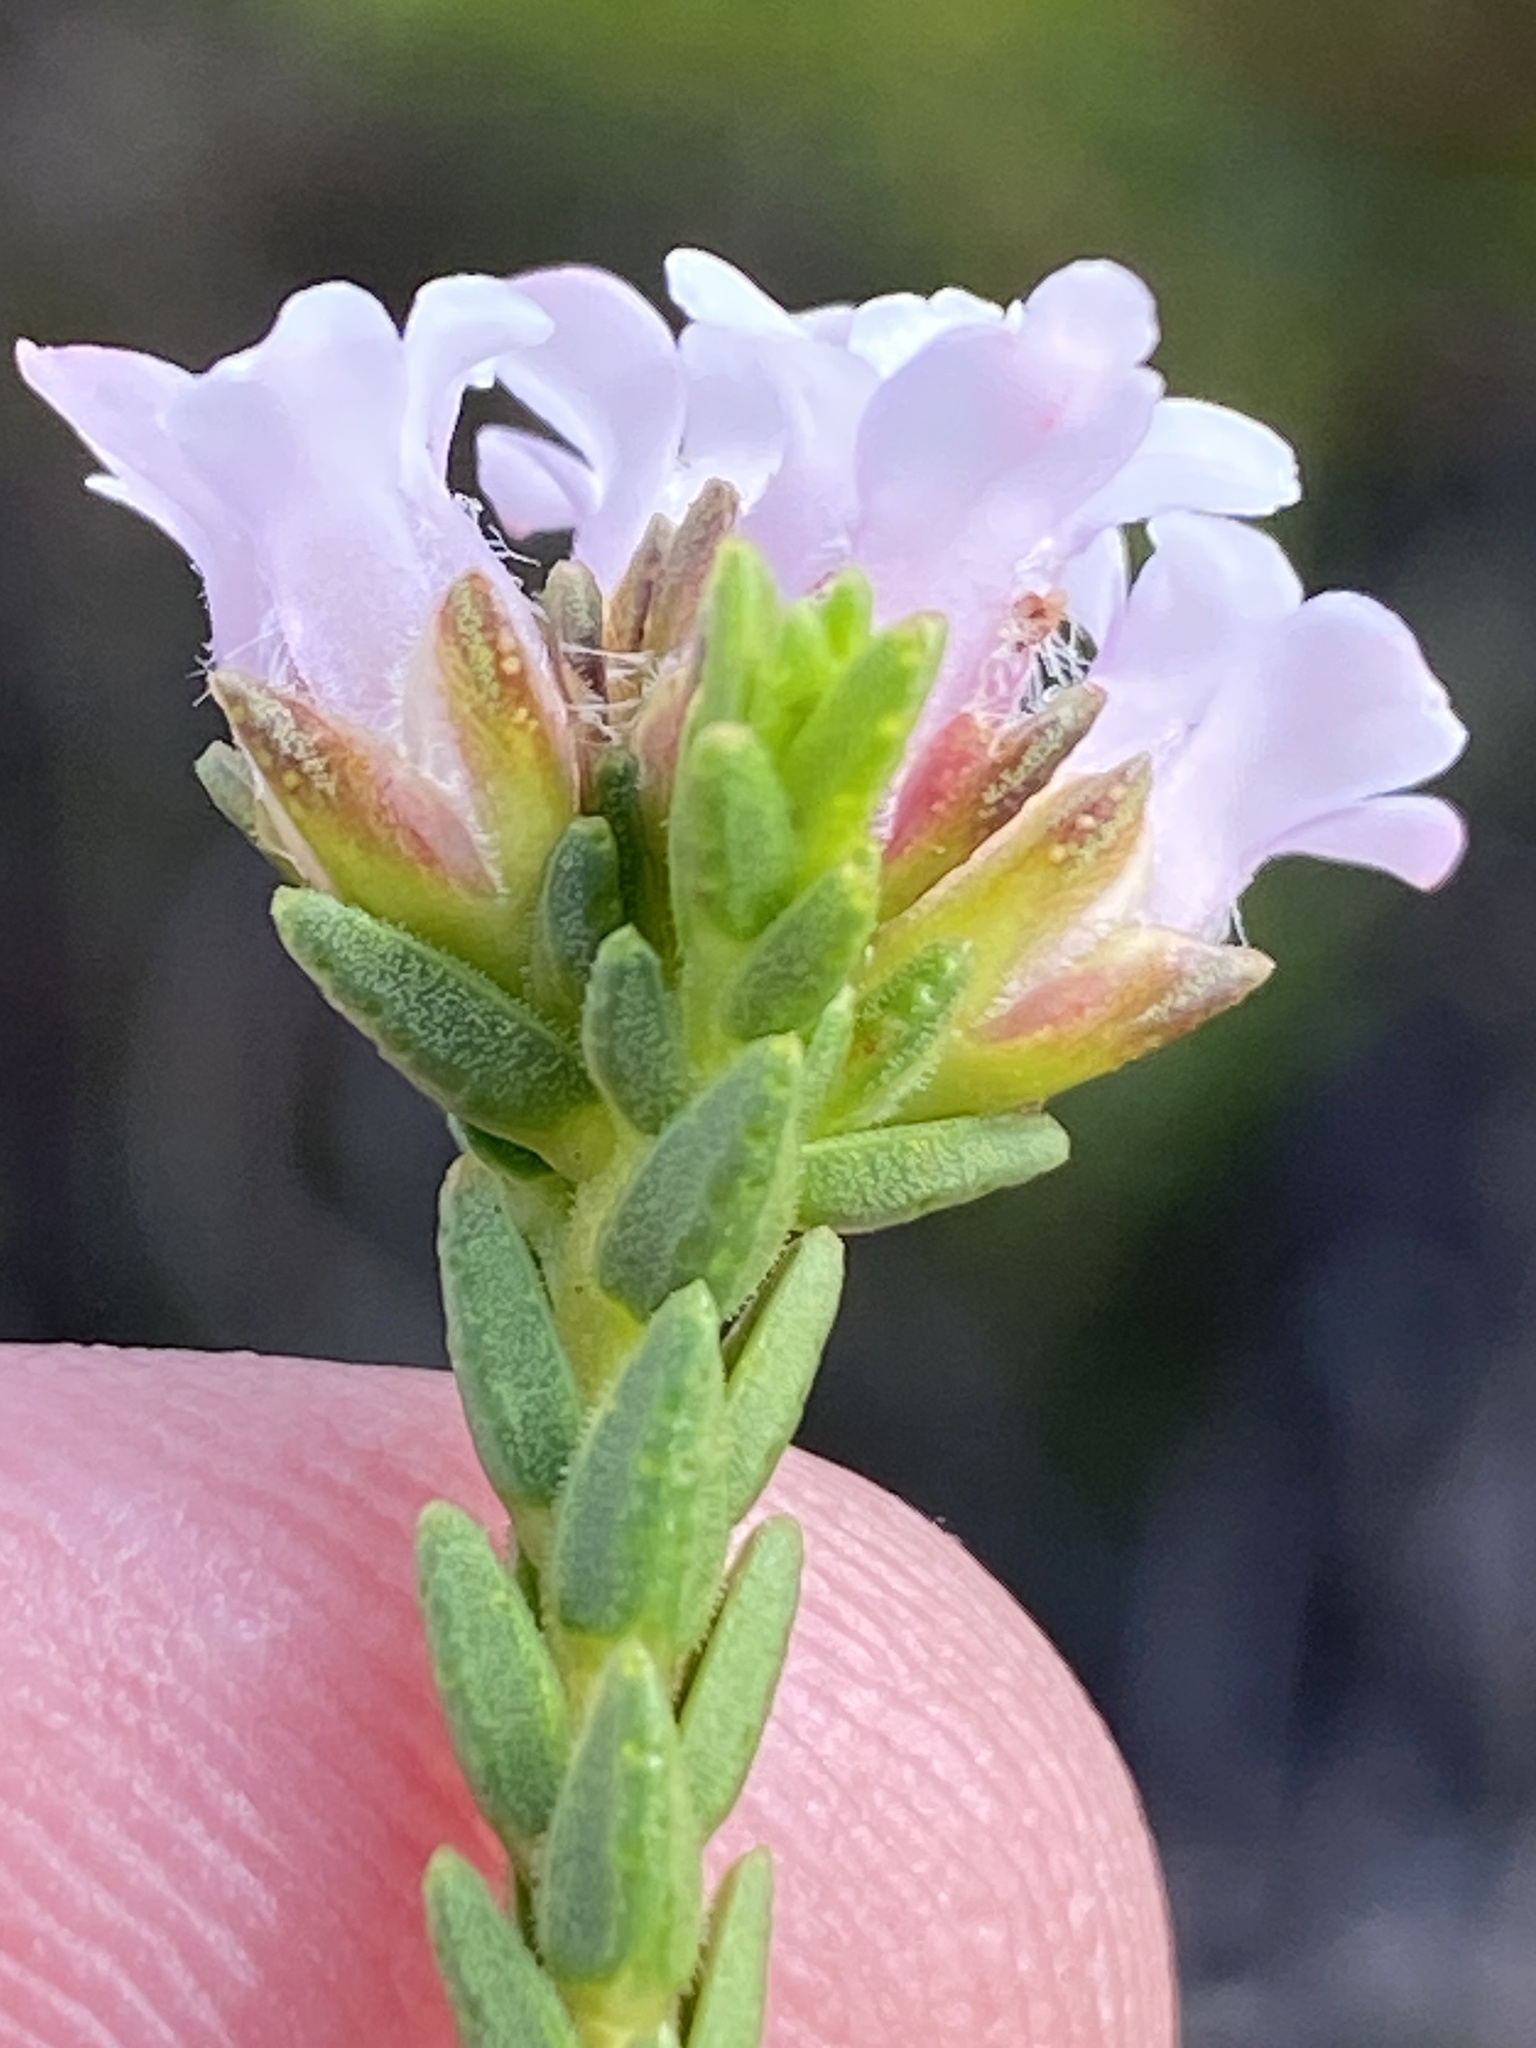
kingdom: Plantae
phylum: Tracheophyta
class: Magnoliopsida
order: Sapindales
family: Rutaceae
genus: Euchaetis
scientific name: Euchaetis scabricosta
